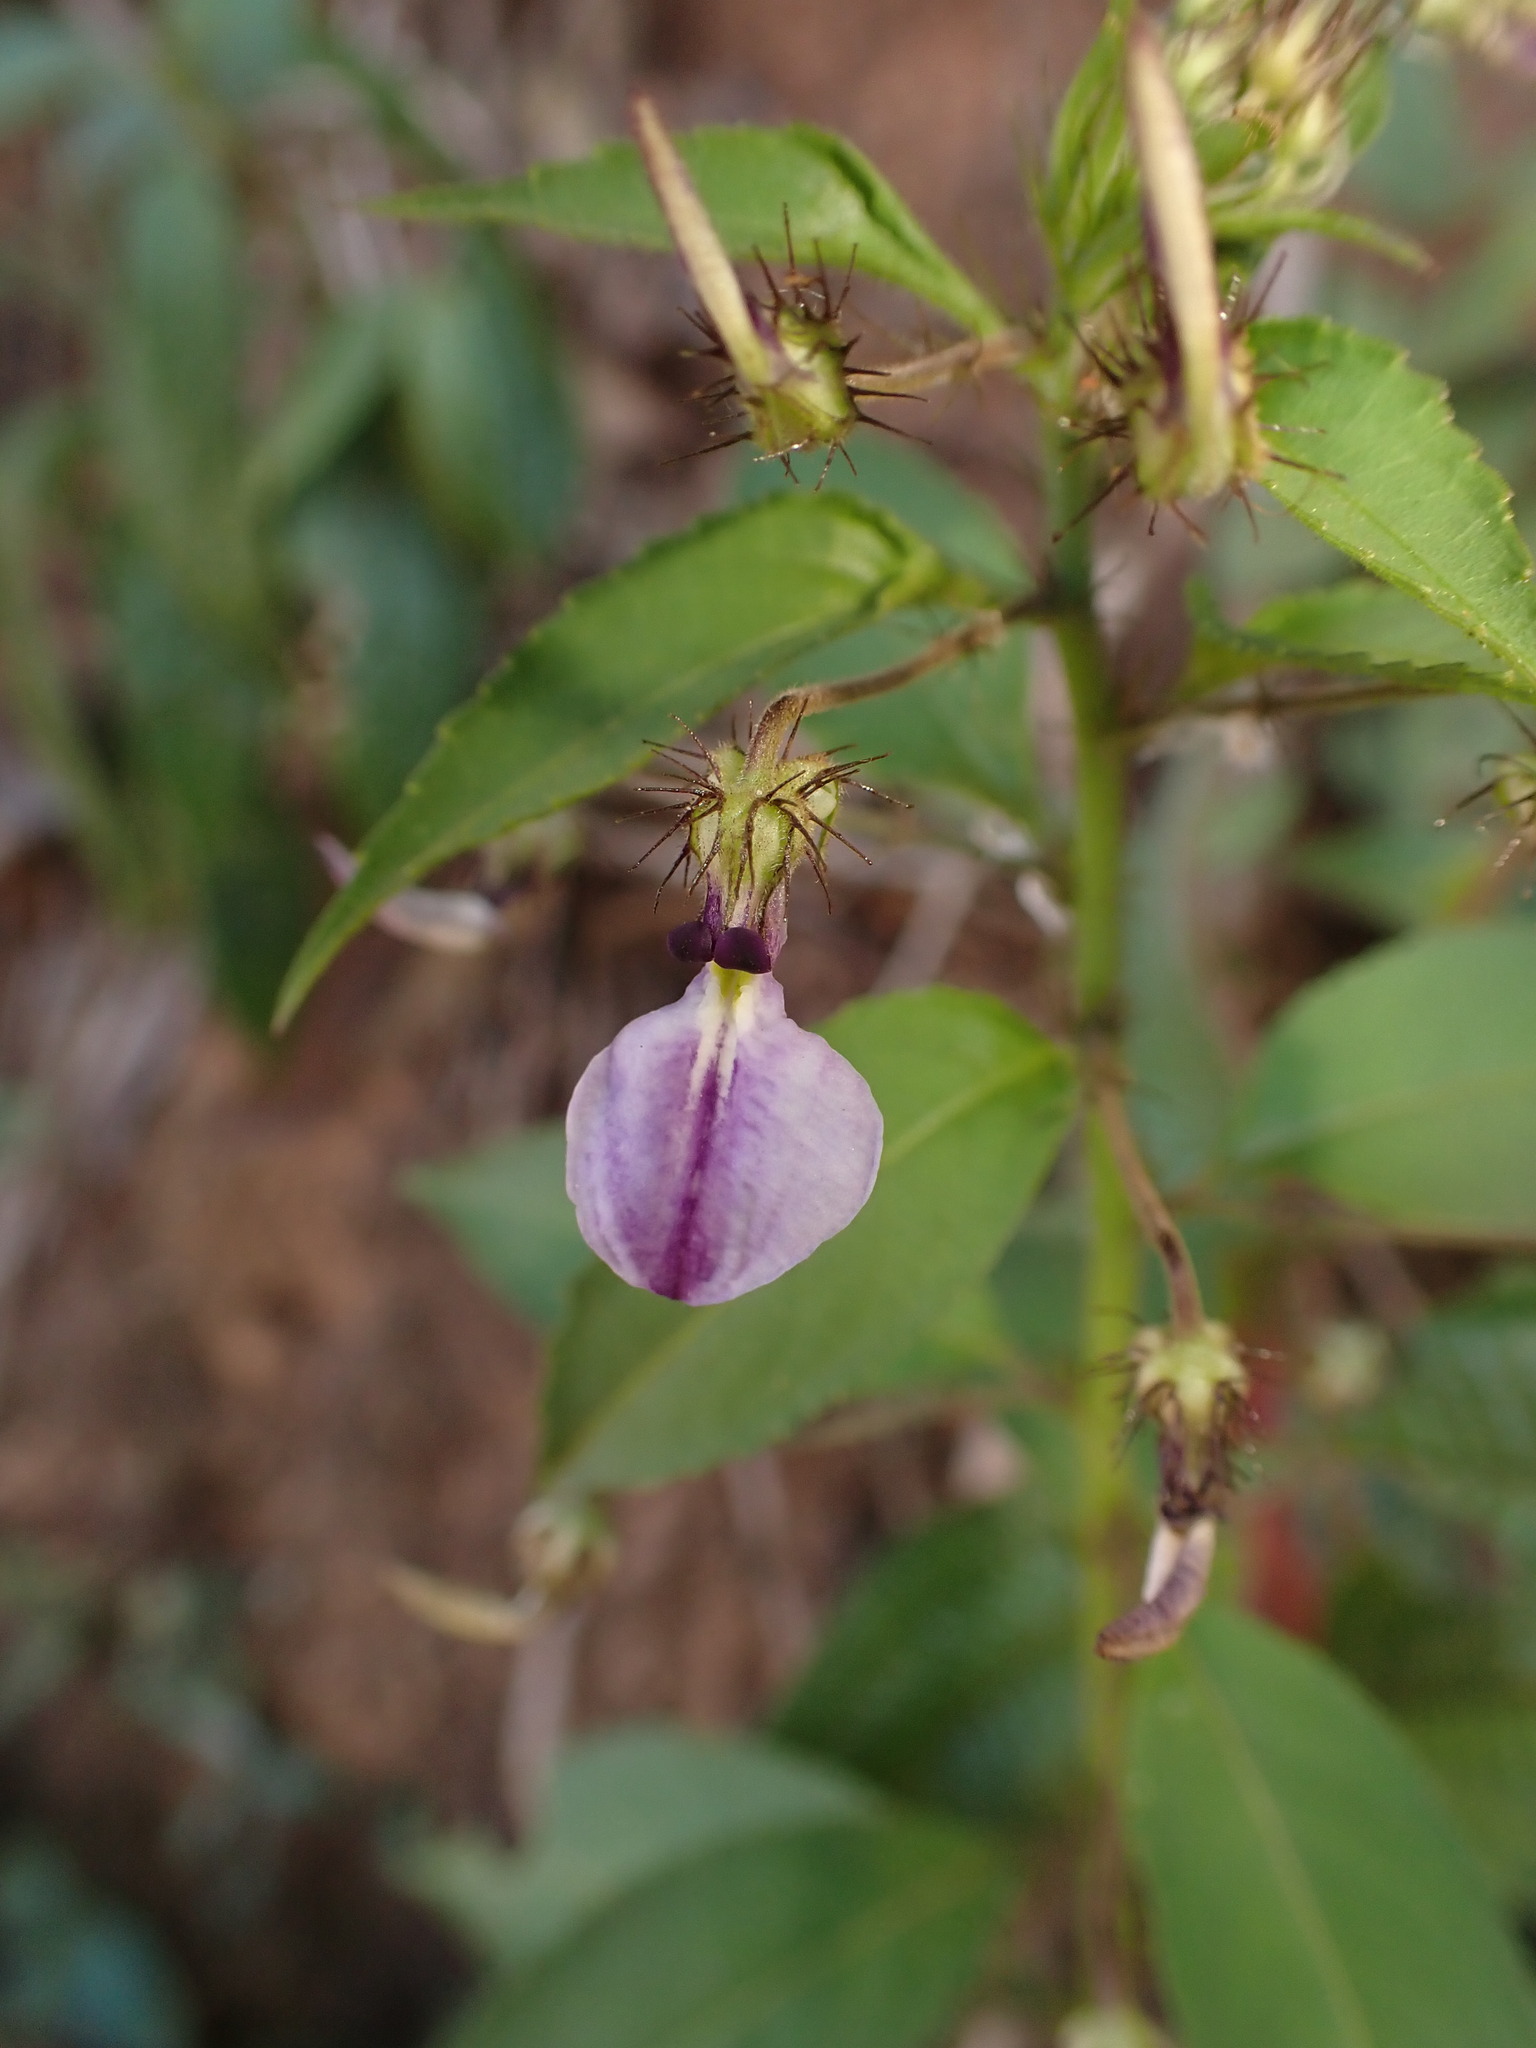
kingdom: Plantae
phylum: Tracheophyta
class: Magnoliopsida
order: Malpighiales
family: Violaceae
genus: Pombalia
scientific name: Pombalia setigera
